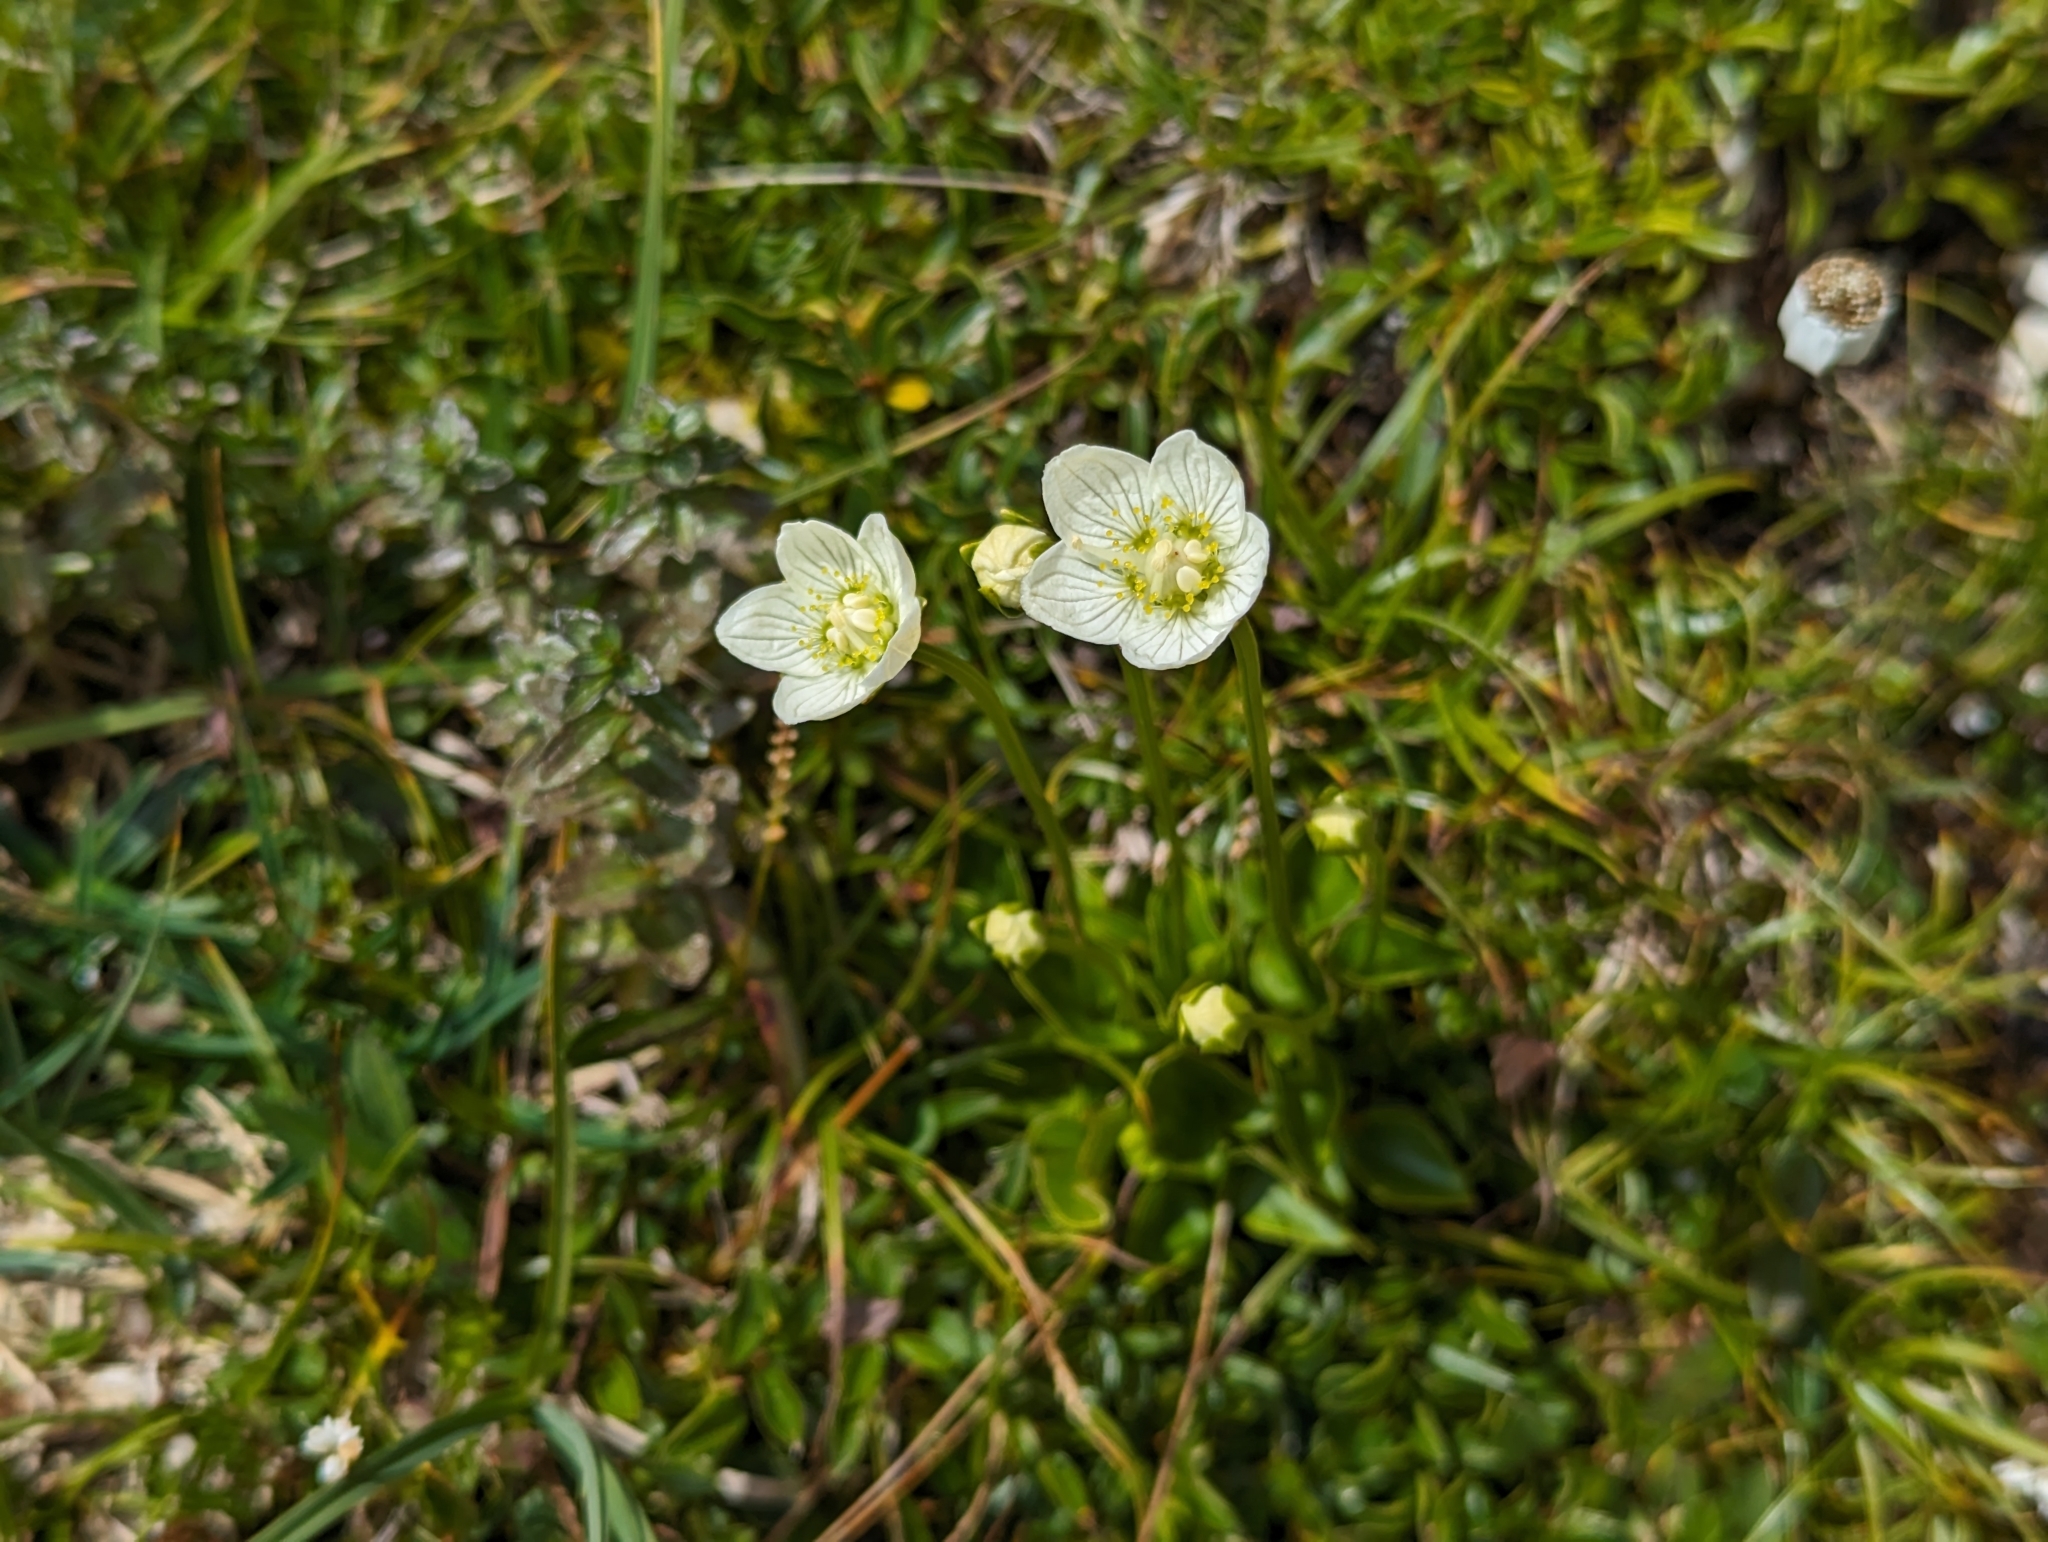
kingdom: Plantae
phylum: Tracheophyta
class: Magnoliopsida
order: Celastrales
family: Parnassiaceae
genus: Parnassia
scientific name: Parnassia palustris
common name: Grass-of-parnassus
